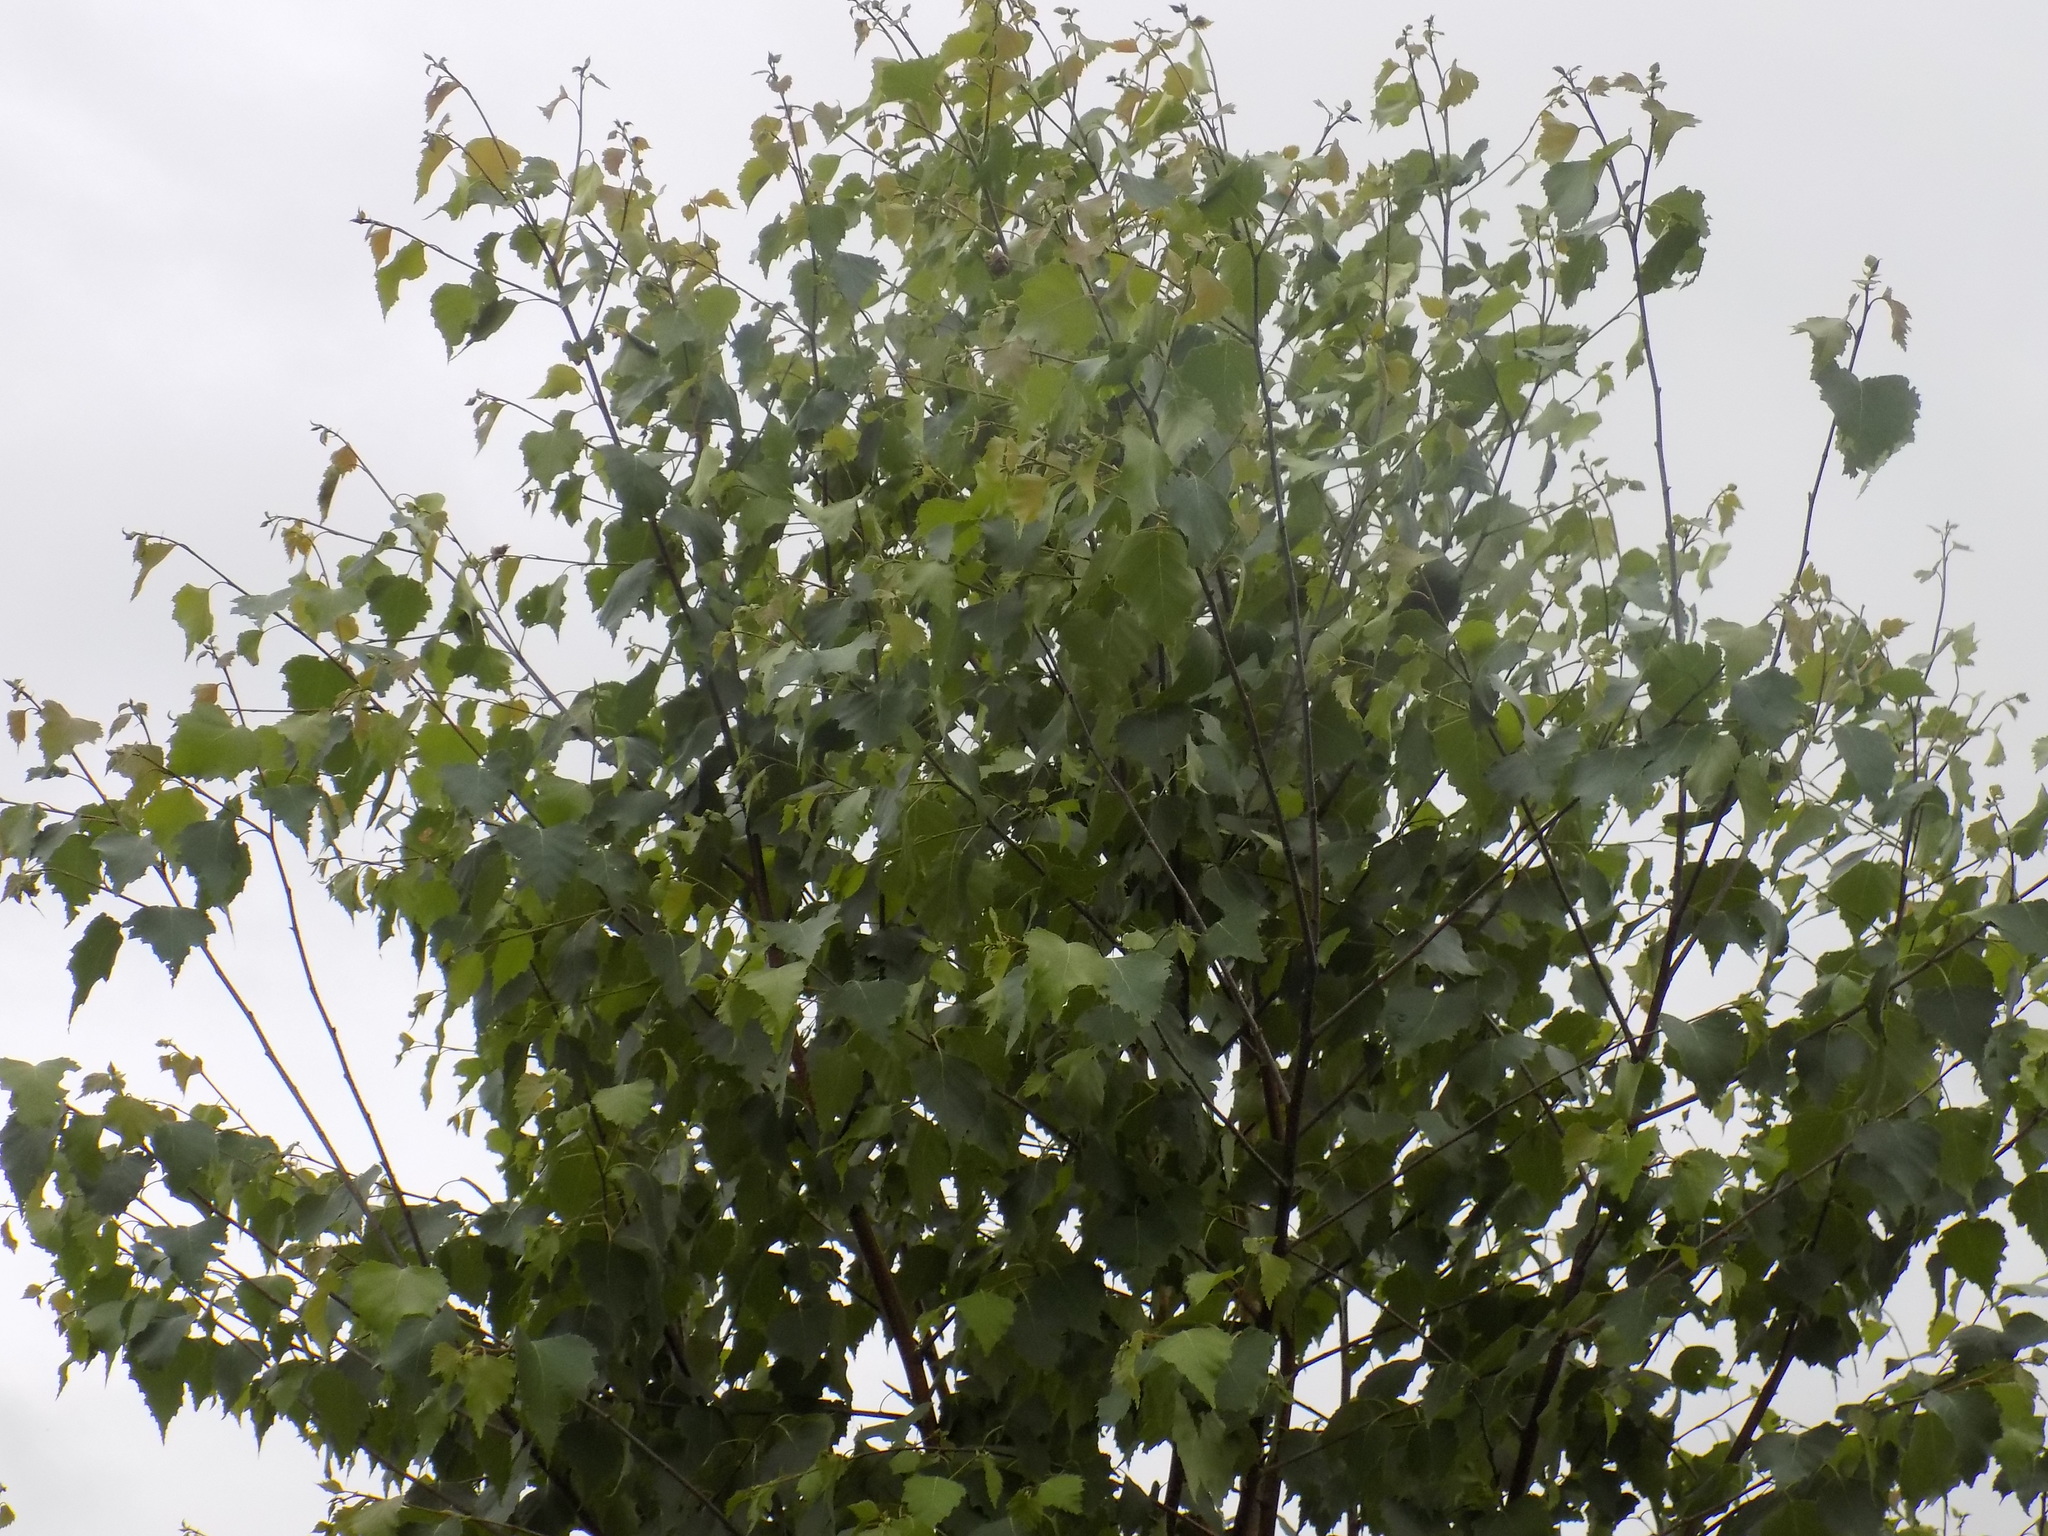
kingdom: Plantae
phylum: Tracheophyta
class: Magnoliopsida
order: Fagales
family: Betulaceae
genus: Betula
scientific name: Betula pendula
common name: Silver birch
